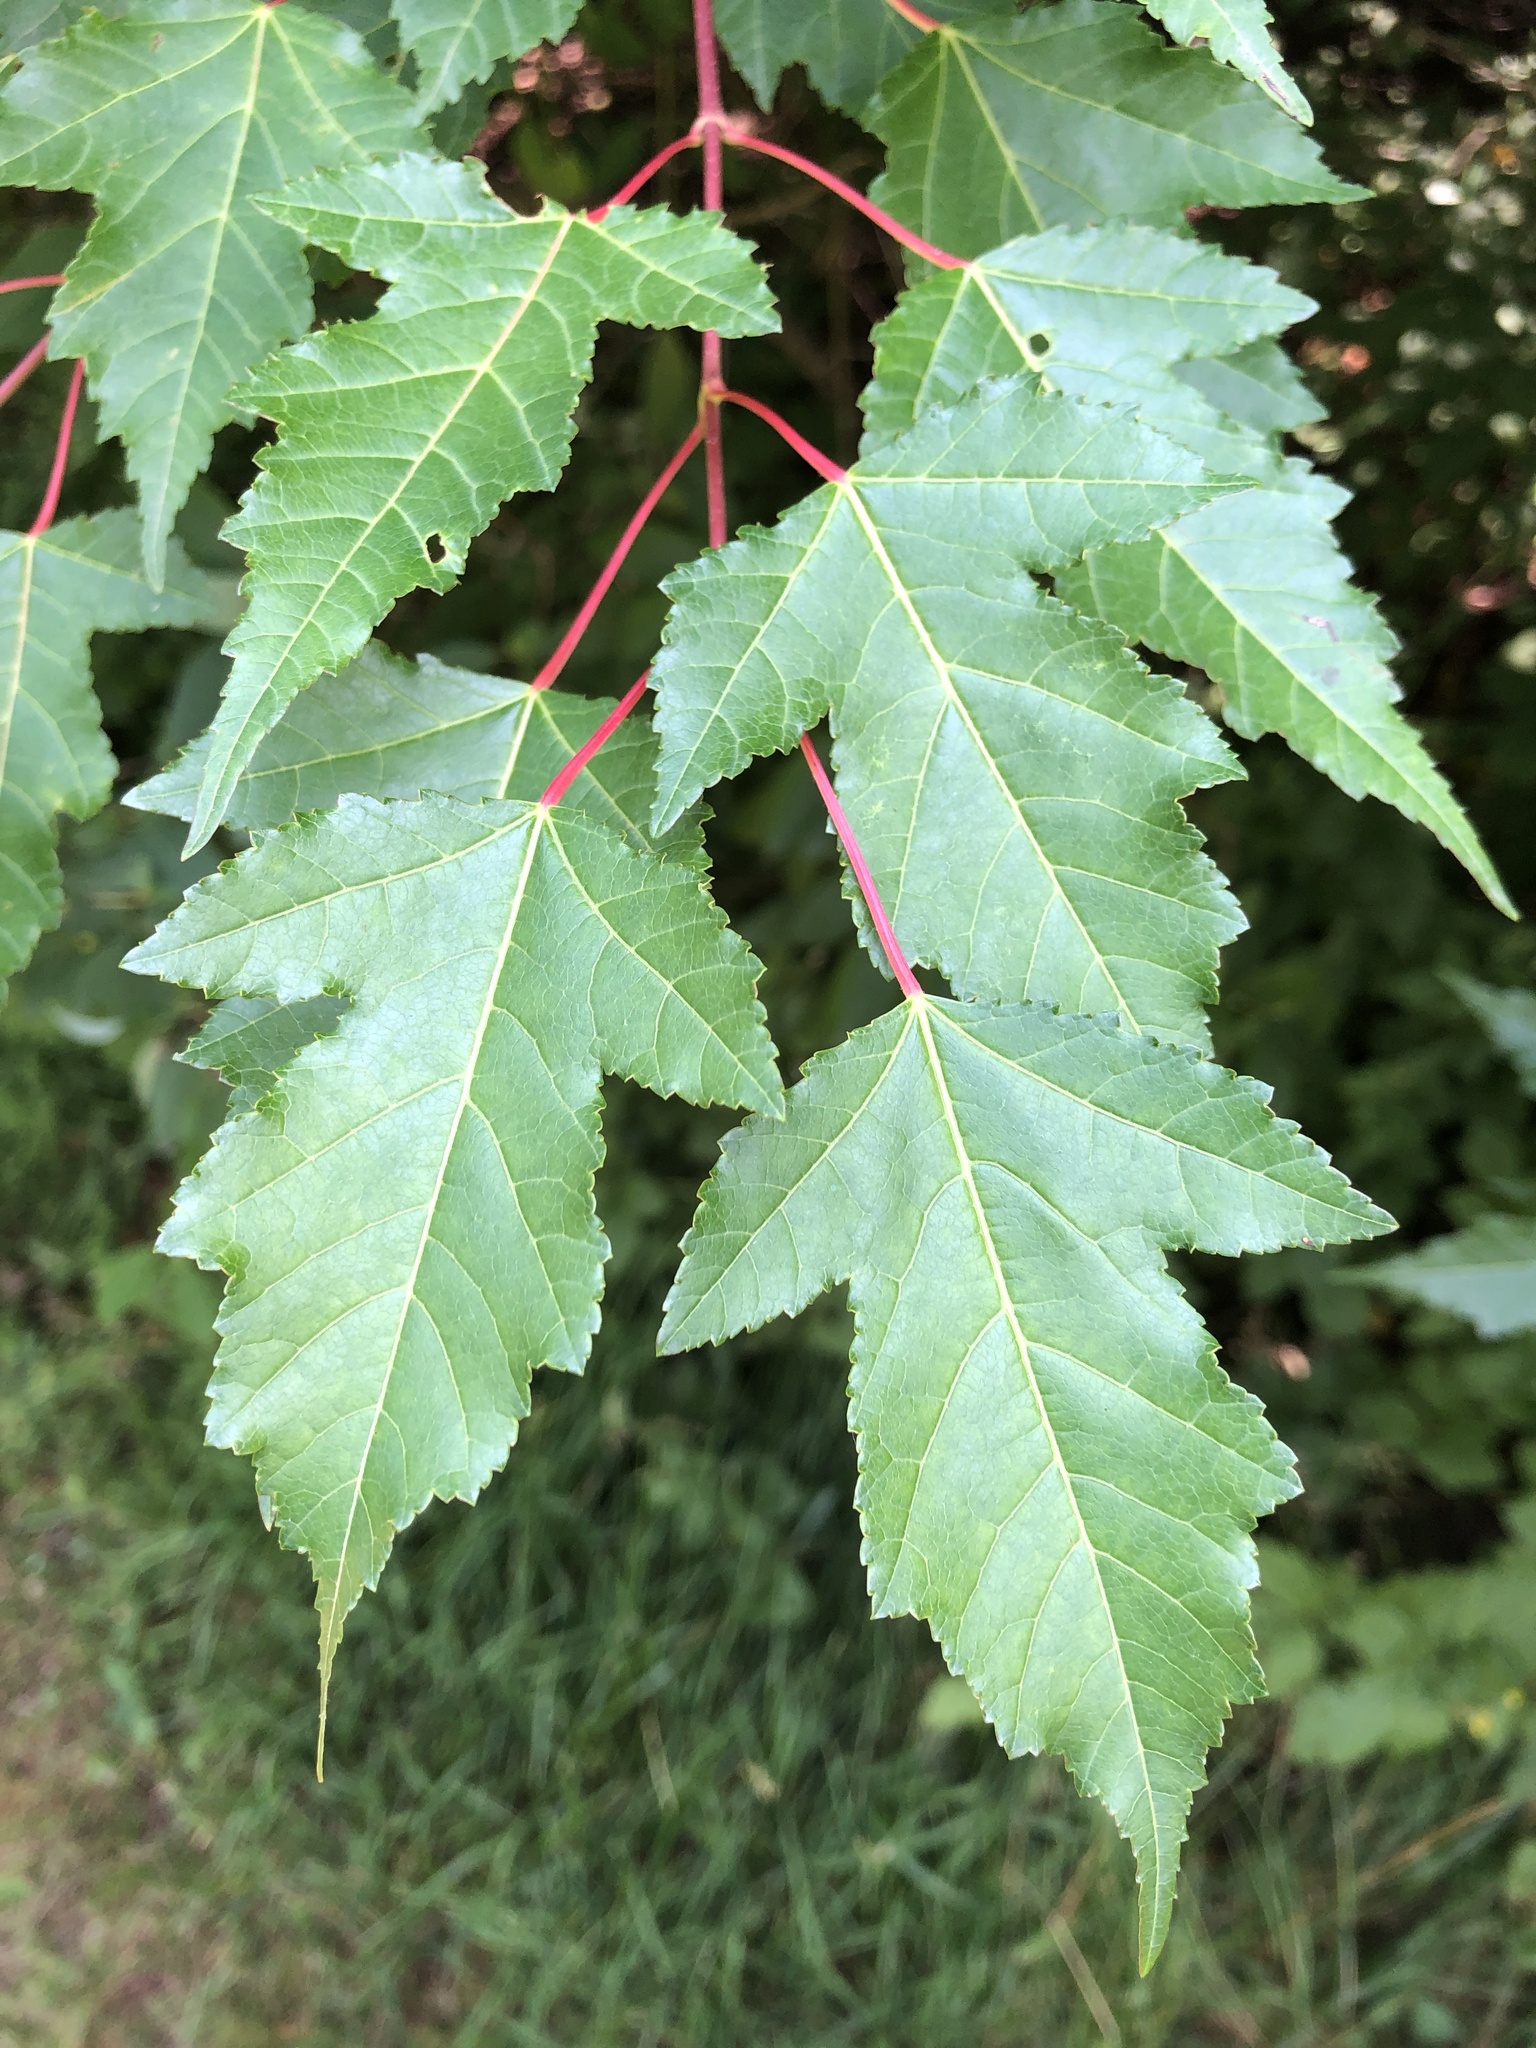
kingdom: Plantae
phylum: Tracheophyta
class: Magnoliopsida
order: Sapindales
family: Sapindaceae
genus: Acer
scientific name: Acer tataricum
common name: Tartar maple
